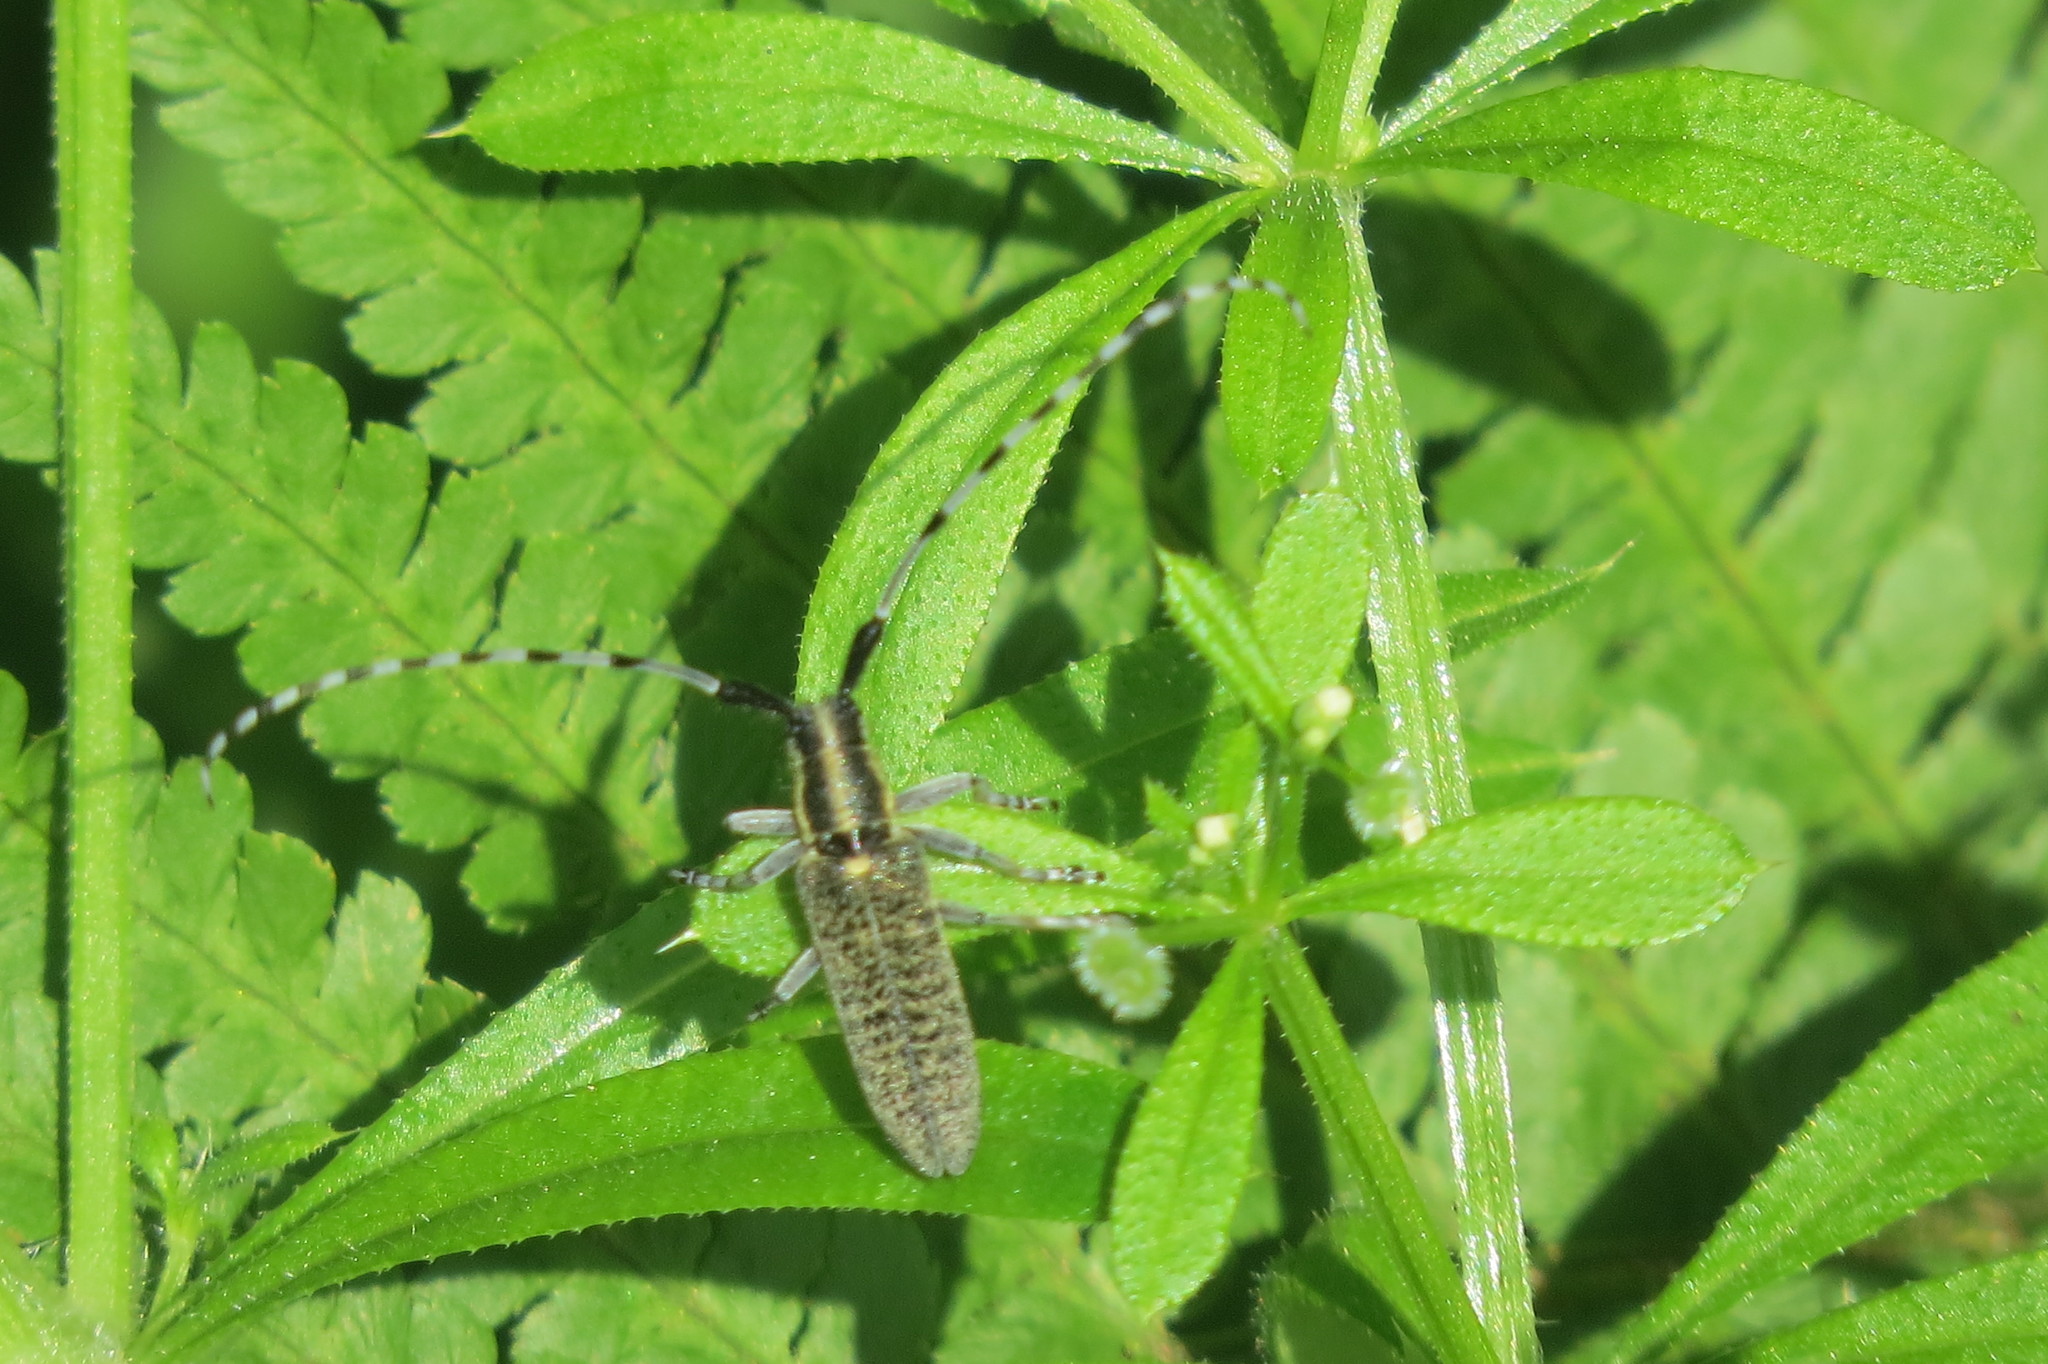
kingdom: Animalia
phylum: Arthropoda
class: Insecta
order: Coleoptera
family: Cerambycidae
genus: Agapanthia
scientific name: Agapanthia villosoviridescens
